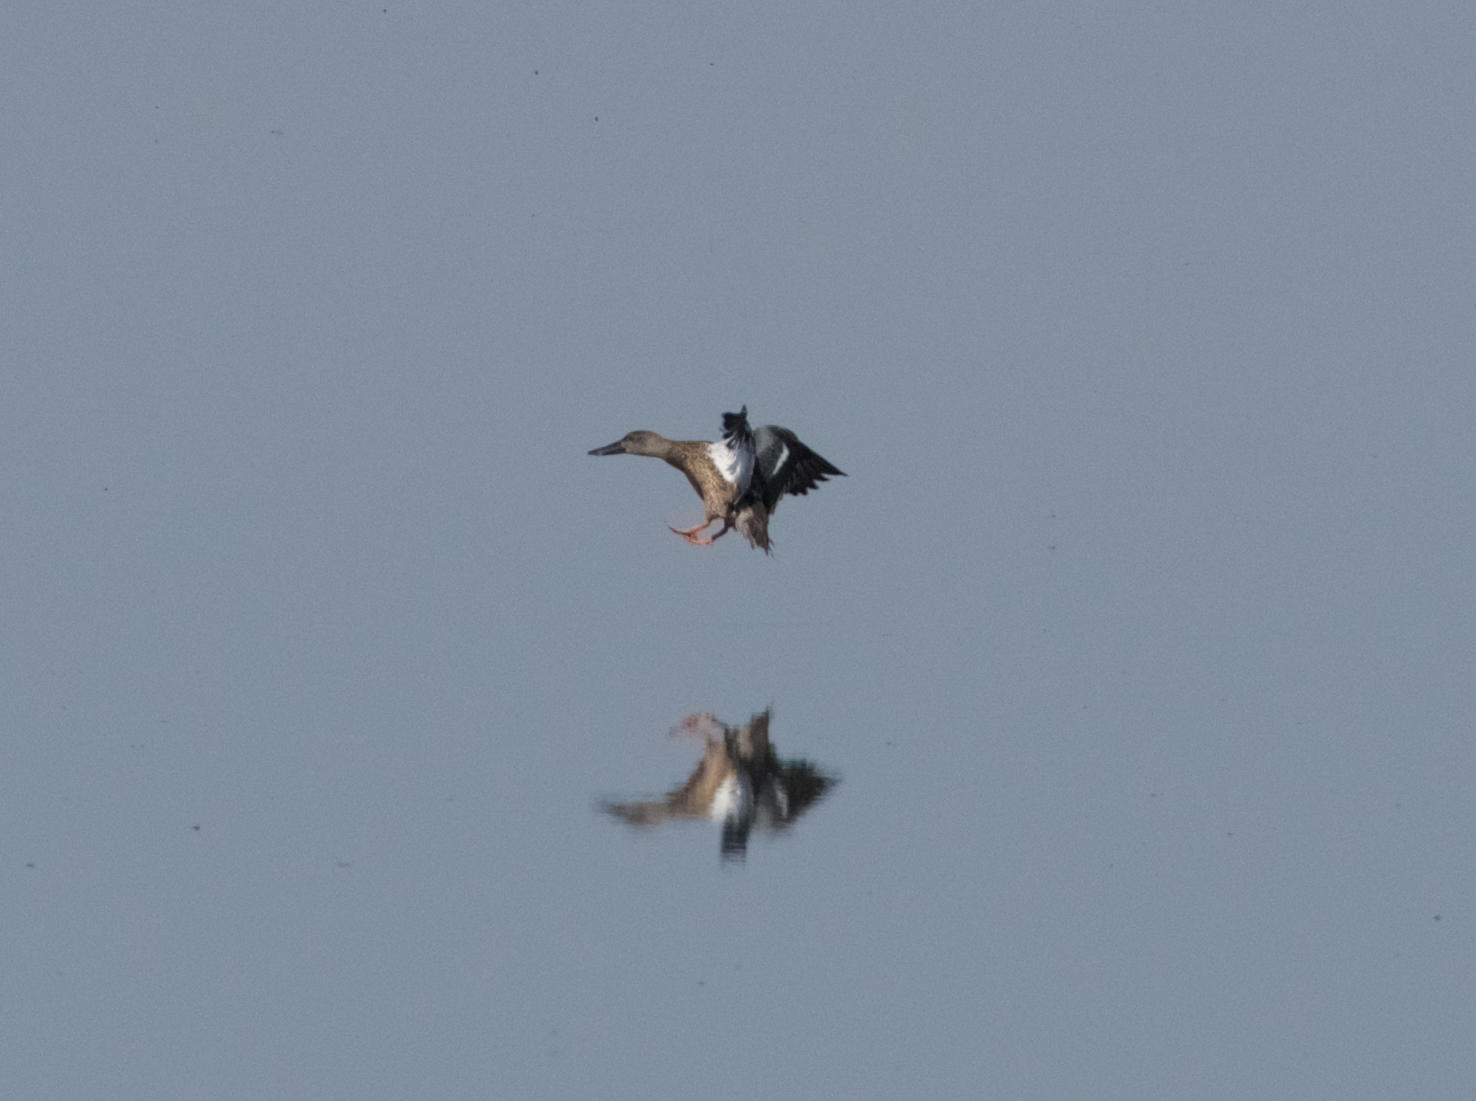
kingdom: Animalia
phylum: Chordata
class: Aves
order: Anseriformes
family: Anatidae
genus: Spatula
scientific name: Spatula clypeata
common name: Northern shoveler
